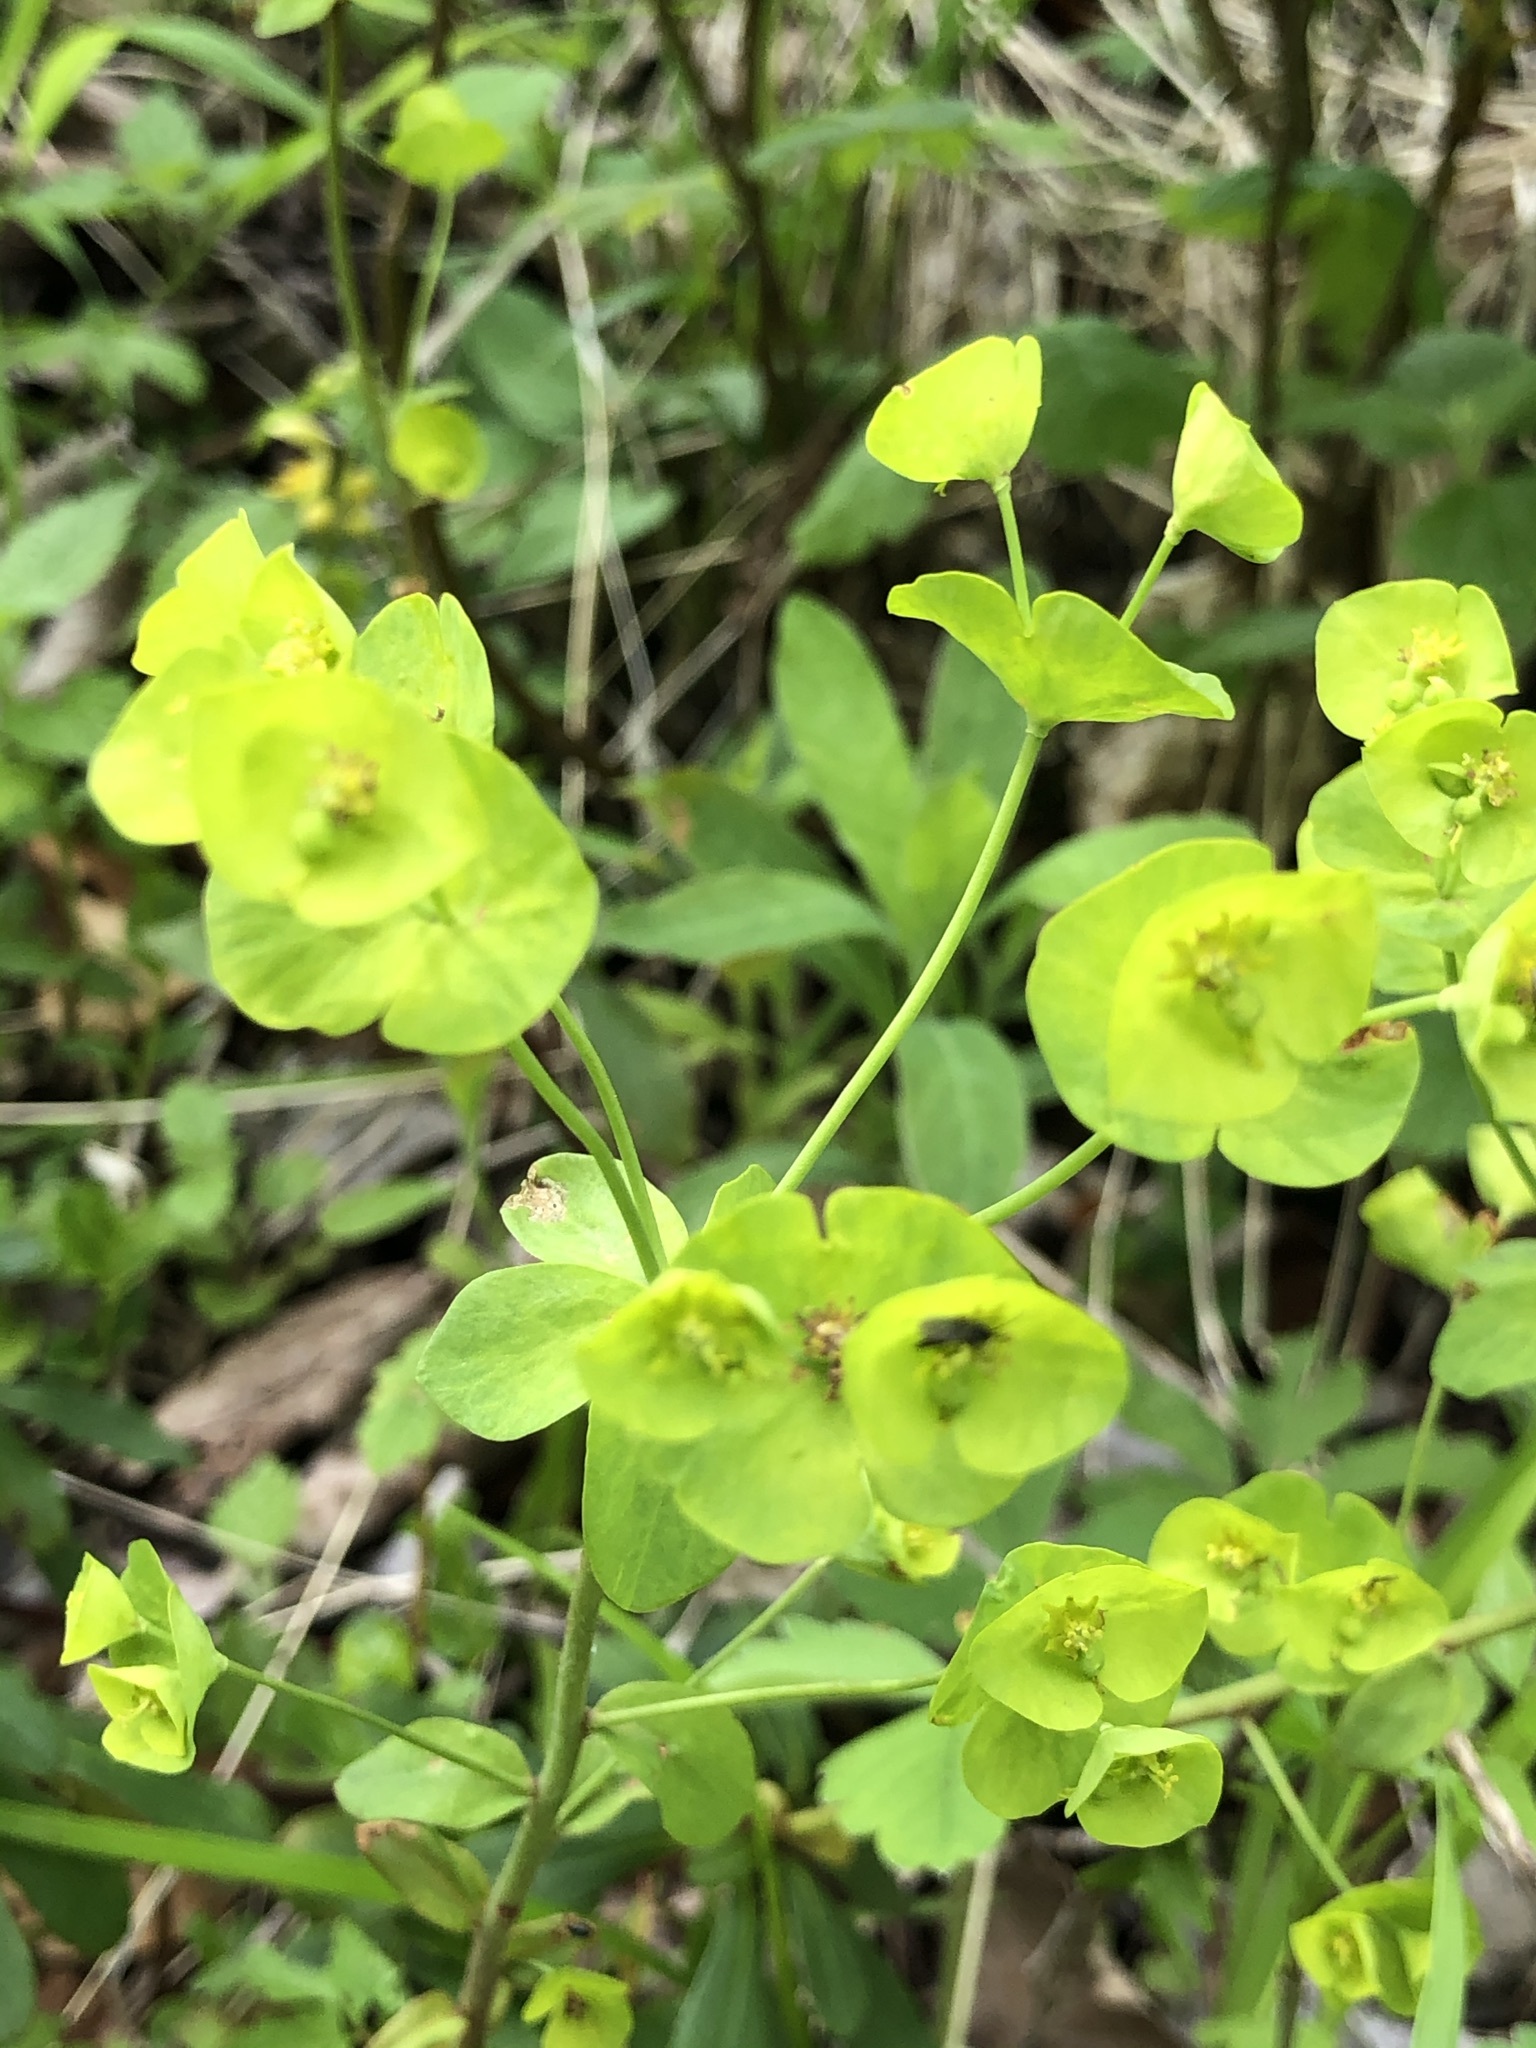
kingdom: Plantae
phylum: Tracheophyta
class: Magnoliopsida
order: Malpighiales
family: Euphorbiaceae
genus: Euphorbia
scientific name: Euphorbia amygdaloides
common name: Wood spurge
